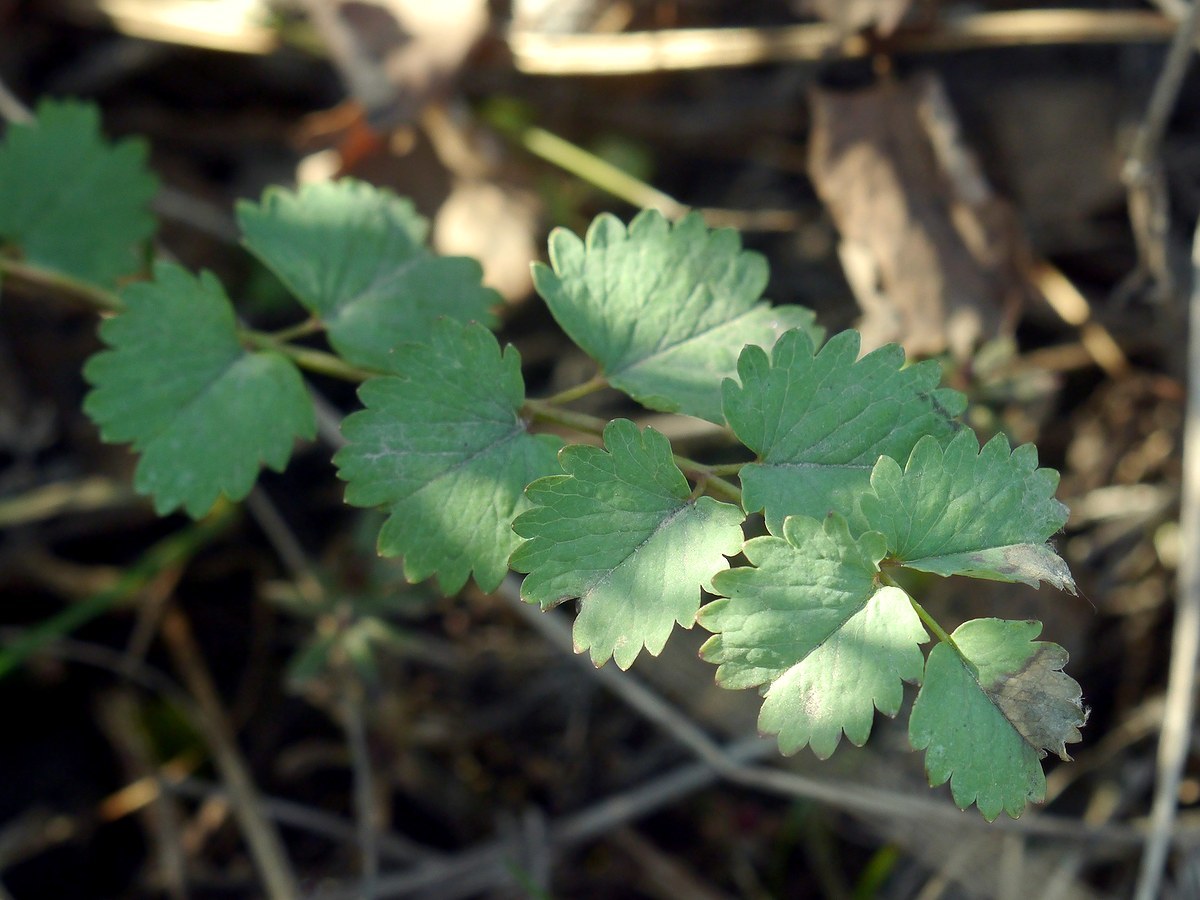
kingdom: Plantae
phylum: Tracheophyta
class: Magnoliopsida
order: Rosales
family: Rosaceae
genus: Poterium
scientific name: Poterium sanguisorba
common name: Salad burnet
